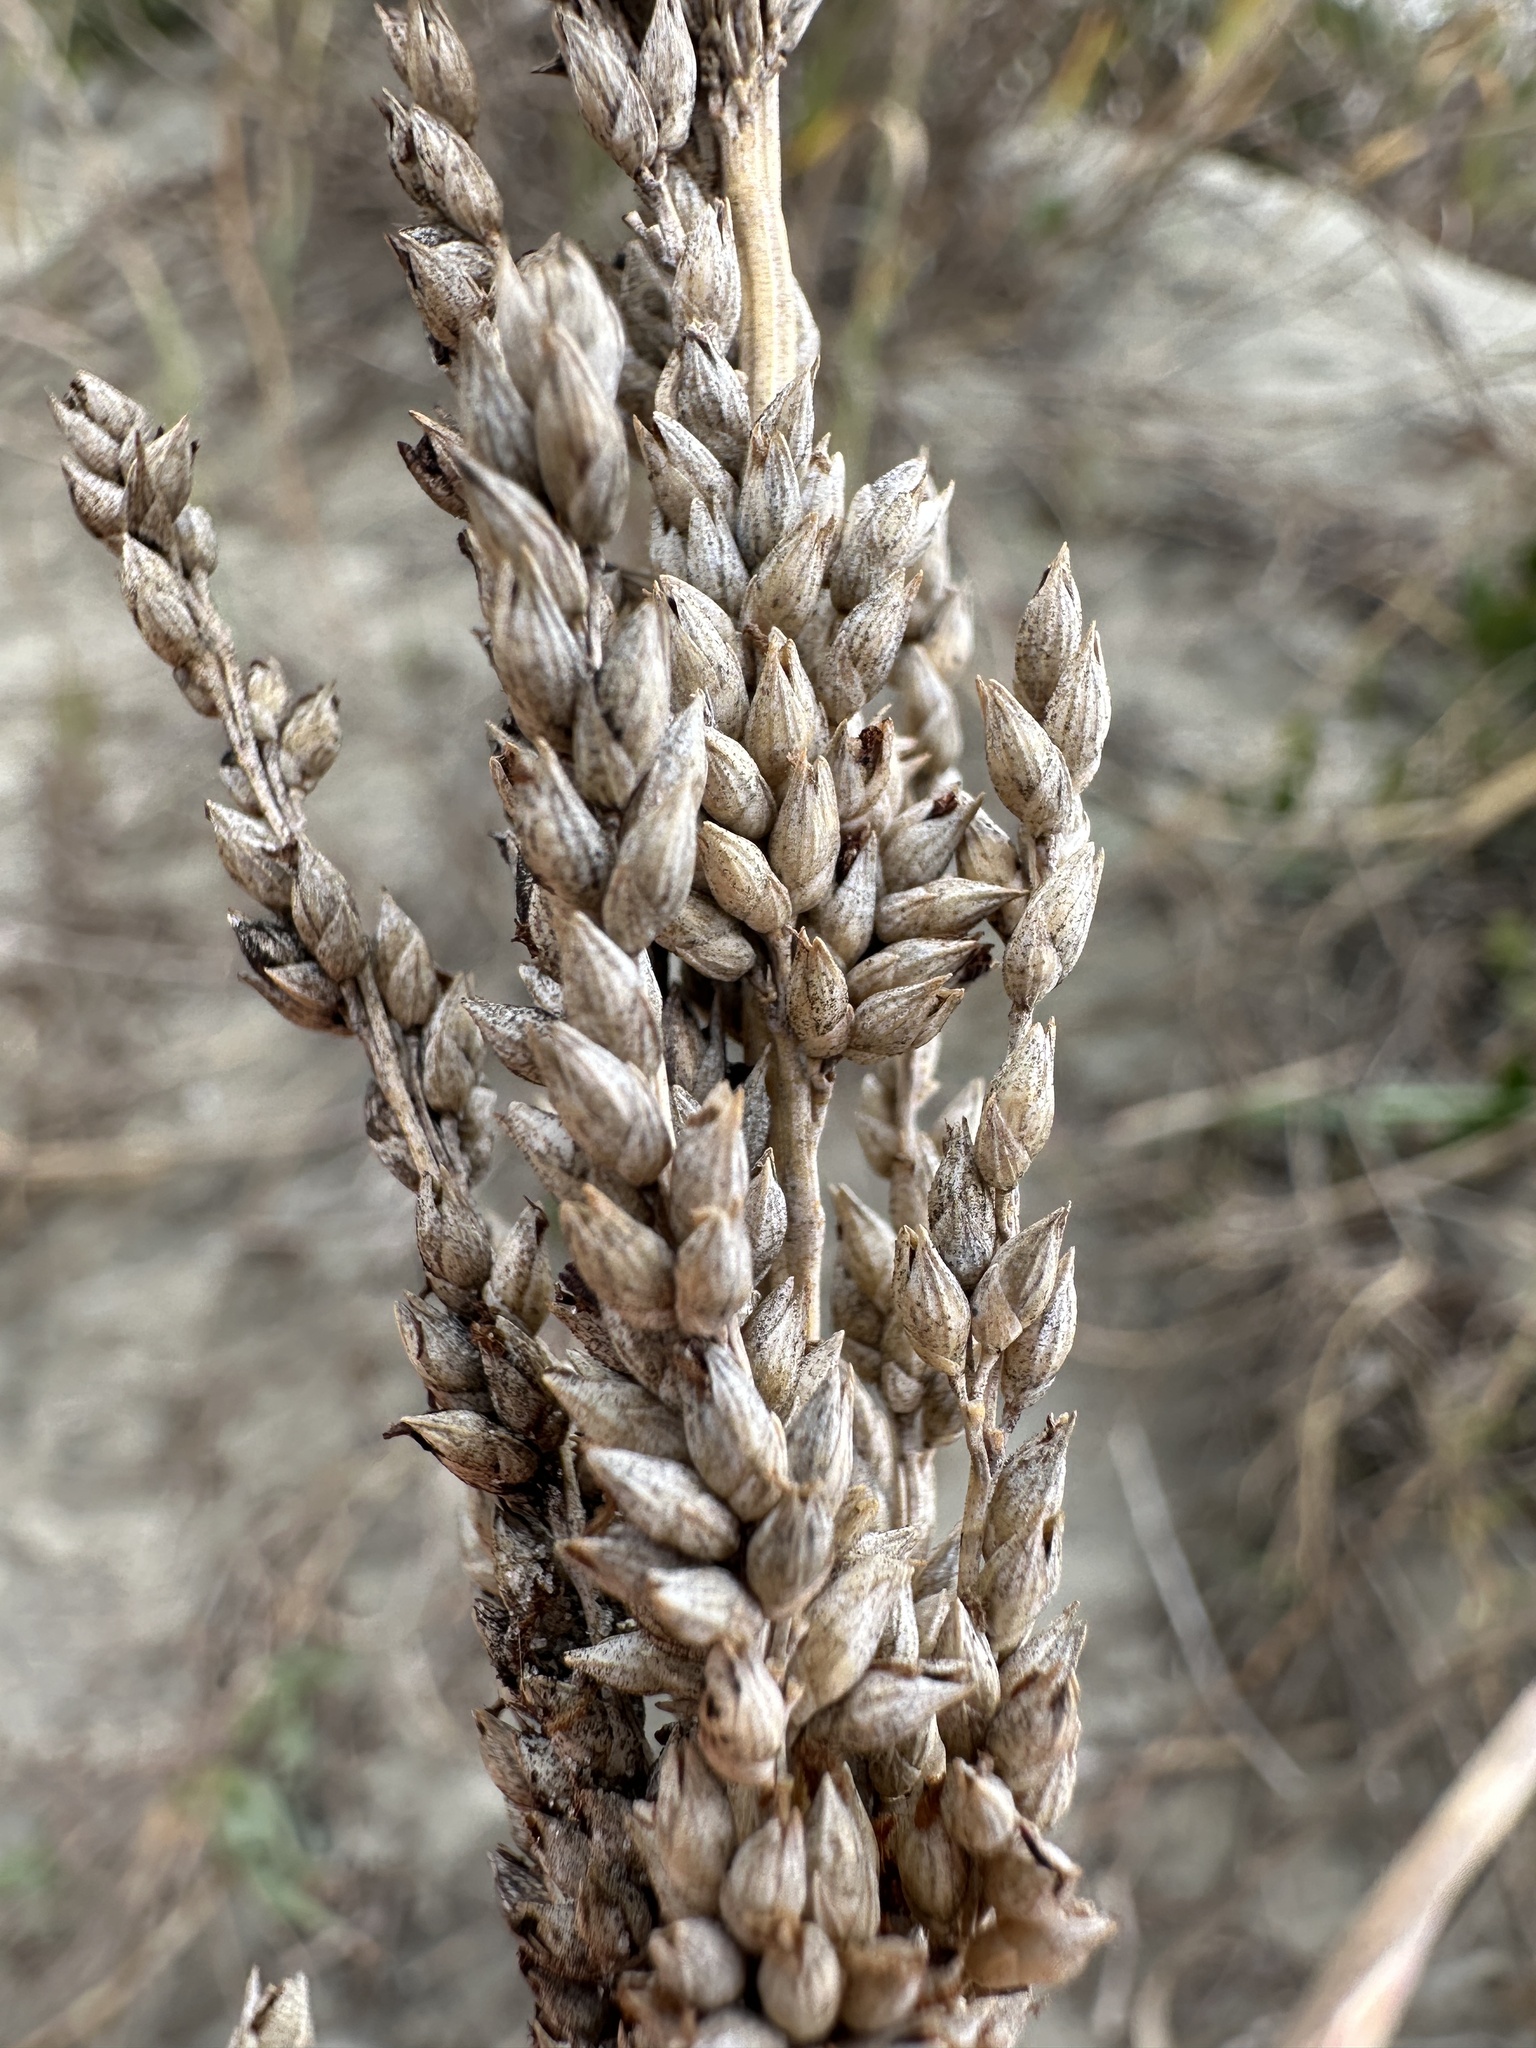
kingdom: Plantae
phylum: Tracheophyta
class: Liliopsida
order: Poales
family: Poaceae
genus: Panicum
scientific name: Panicum amarum
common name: Bitter panicum
